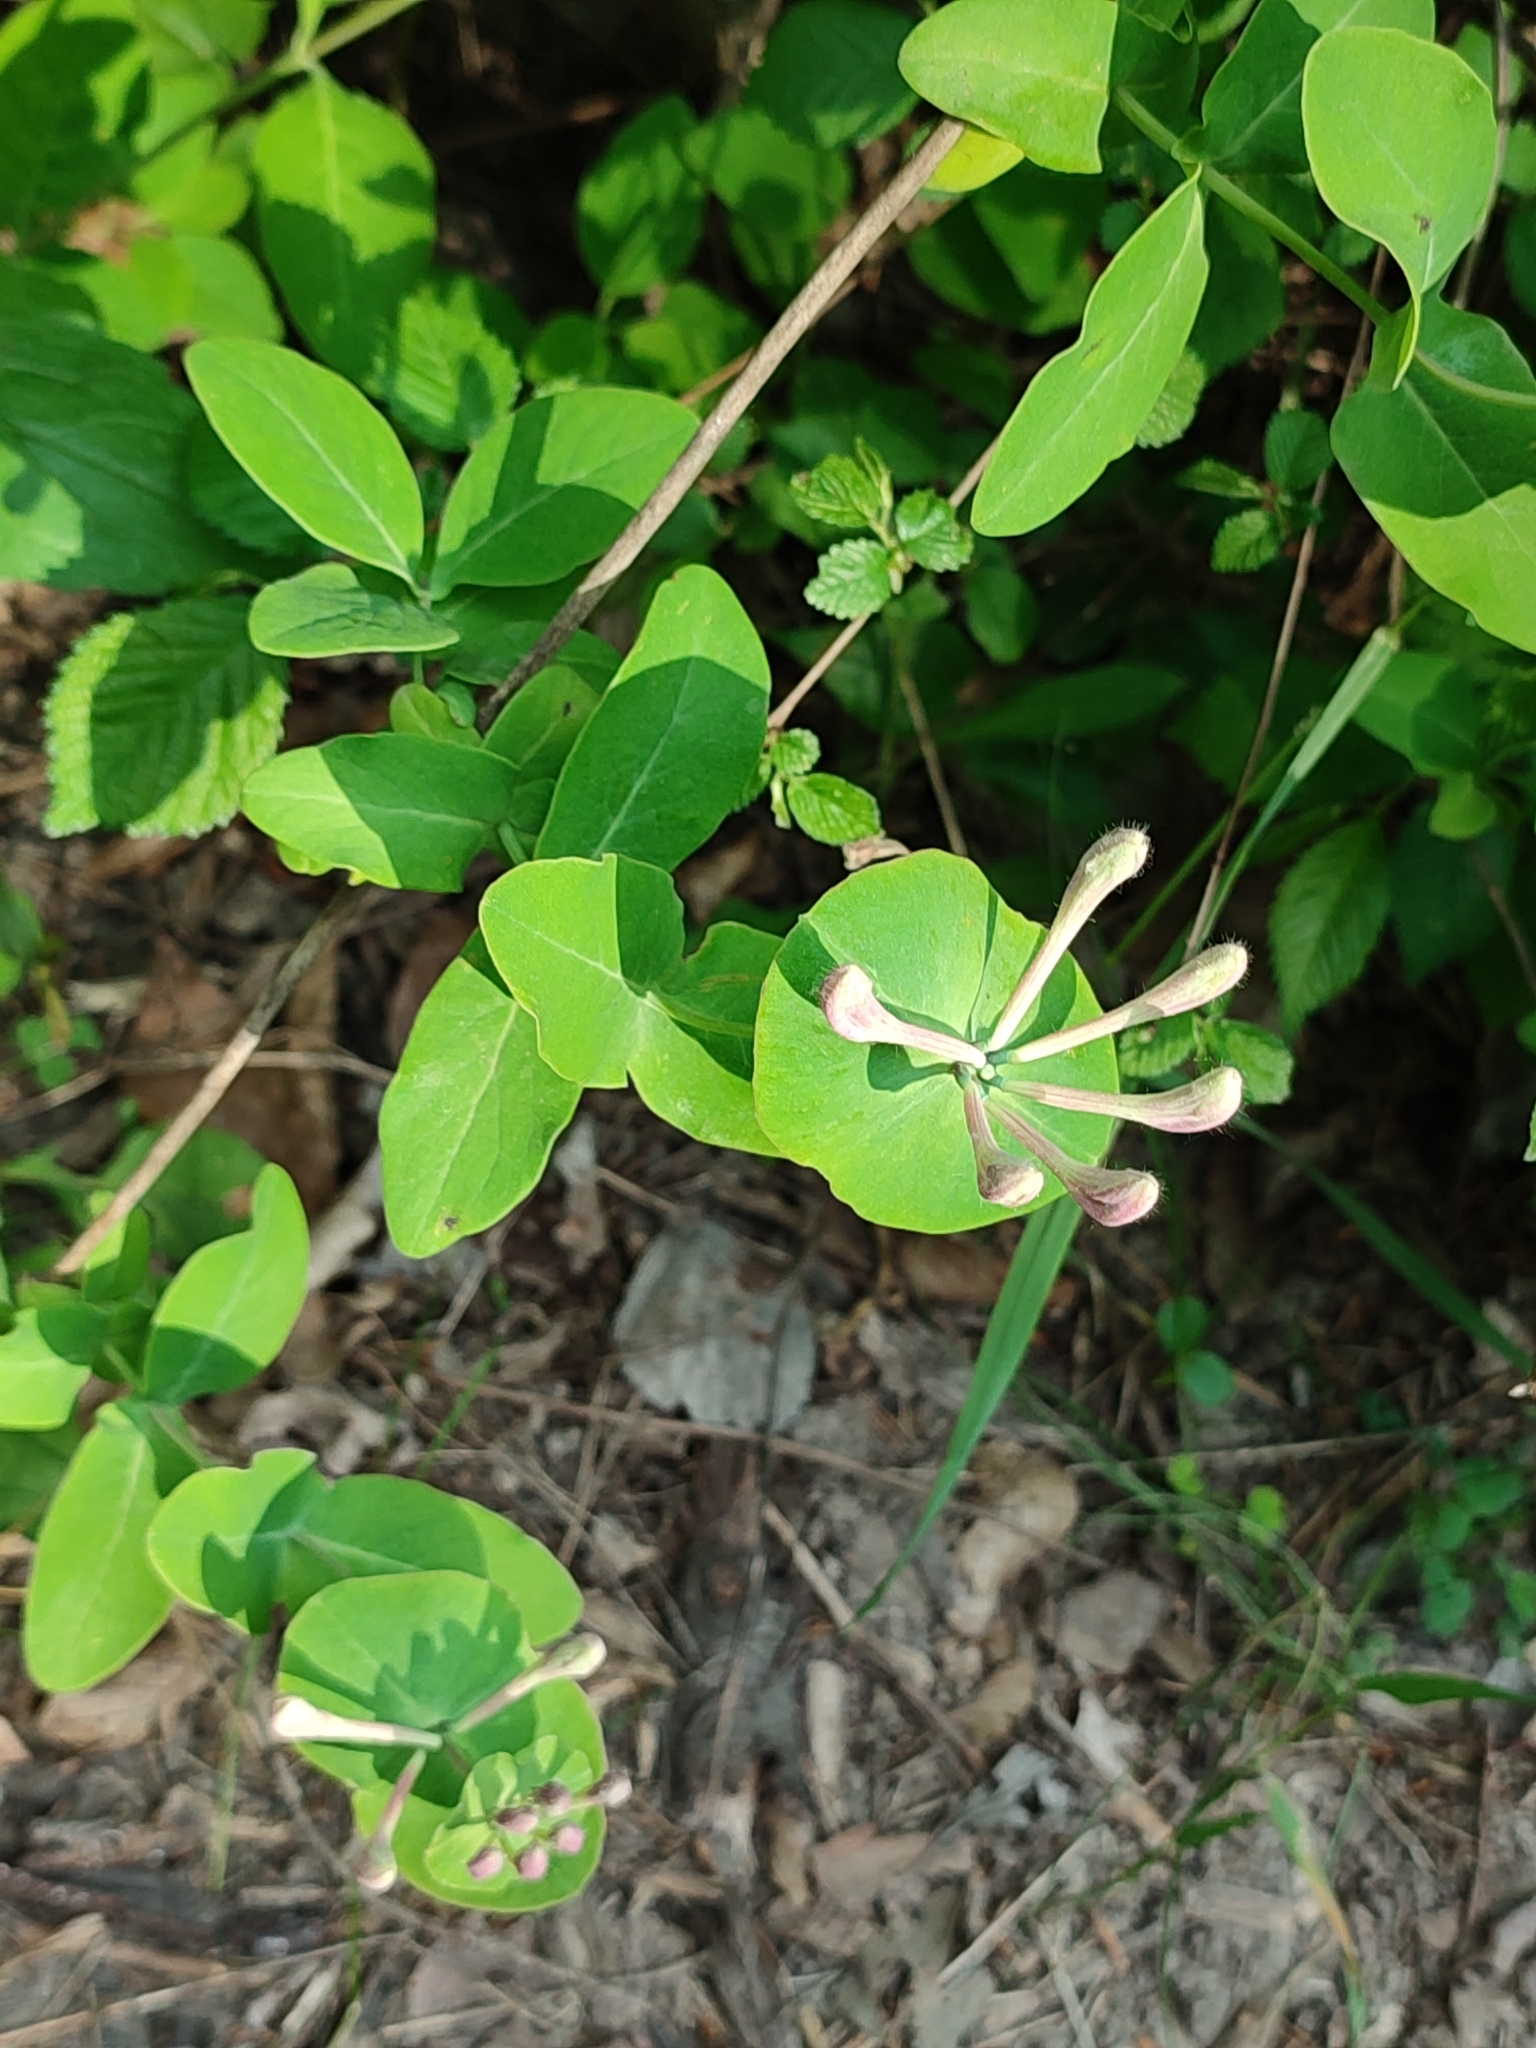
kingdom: Plantae
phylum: Tracheophyta
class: Magnoliopsida
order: Dipsacales
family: Caprifoliaceae
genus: Lonicera
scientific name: Lonicera caprifolium
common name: Perfoliate honeysuckle
